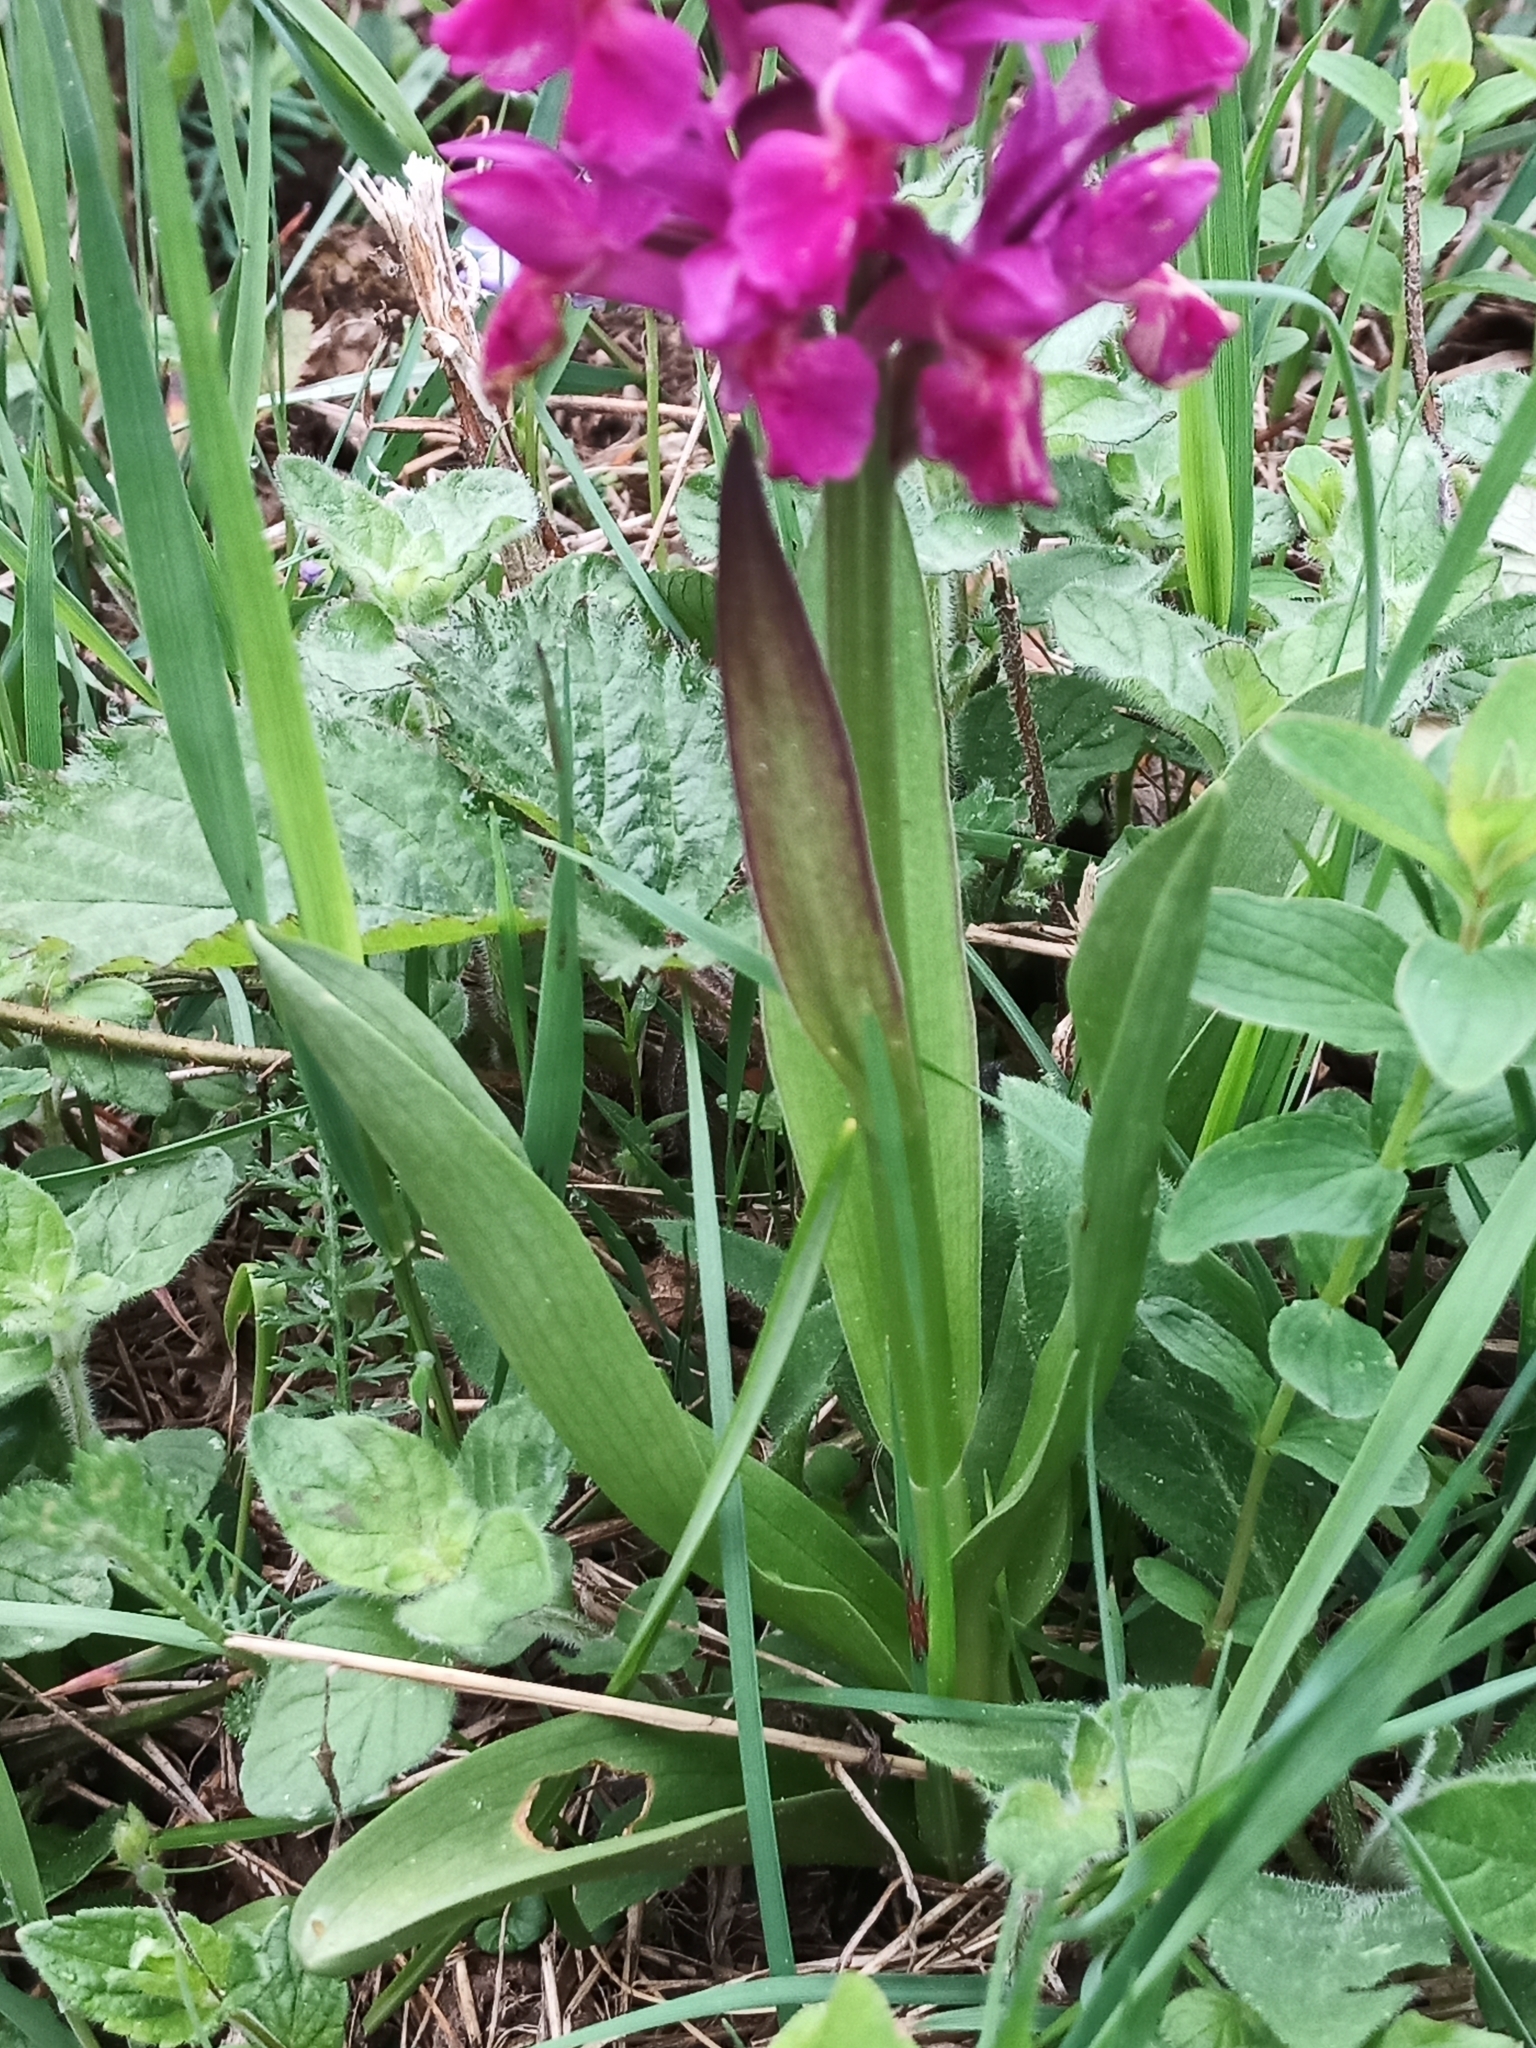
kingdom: Plantae
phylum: Tracheophyta
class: Liliopsida
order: Asparagales
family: Orchidaceae
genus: Dactylorhiza
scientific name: Dactylorhiza sambucina
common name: Elder-flowered orchid
